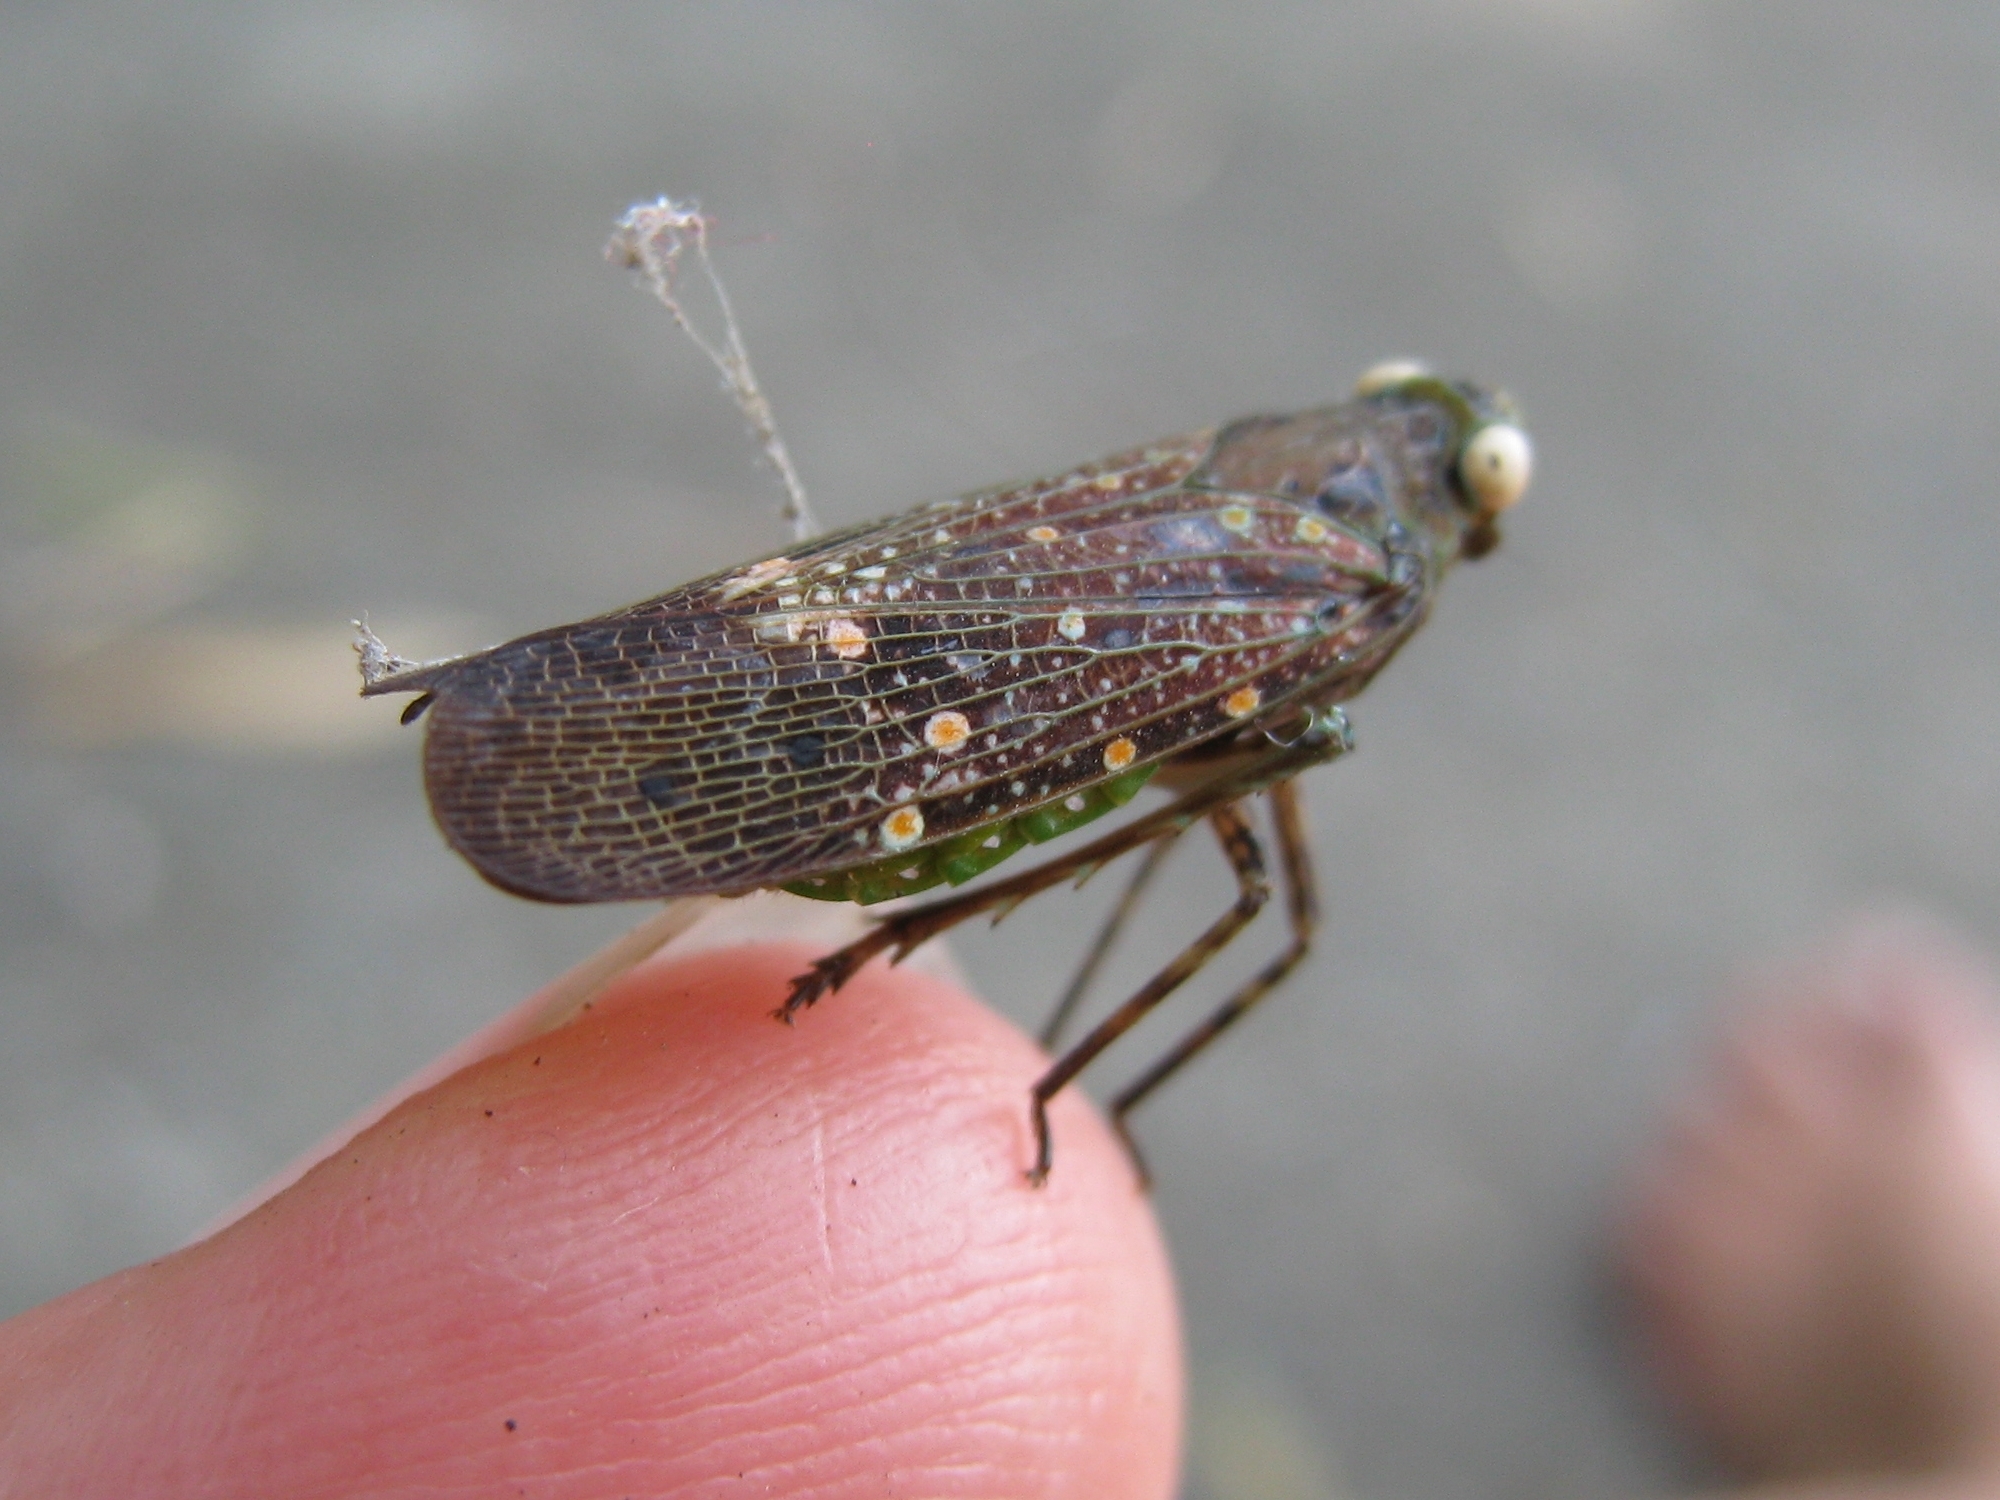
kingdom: Animalia
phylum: Arthropoda
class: Insecta
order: Hemiptera
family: Fulgoridae
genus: Desudaba
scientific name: Desudaba aulica
